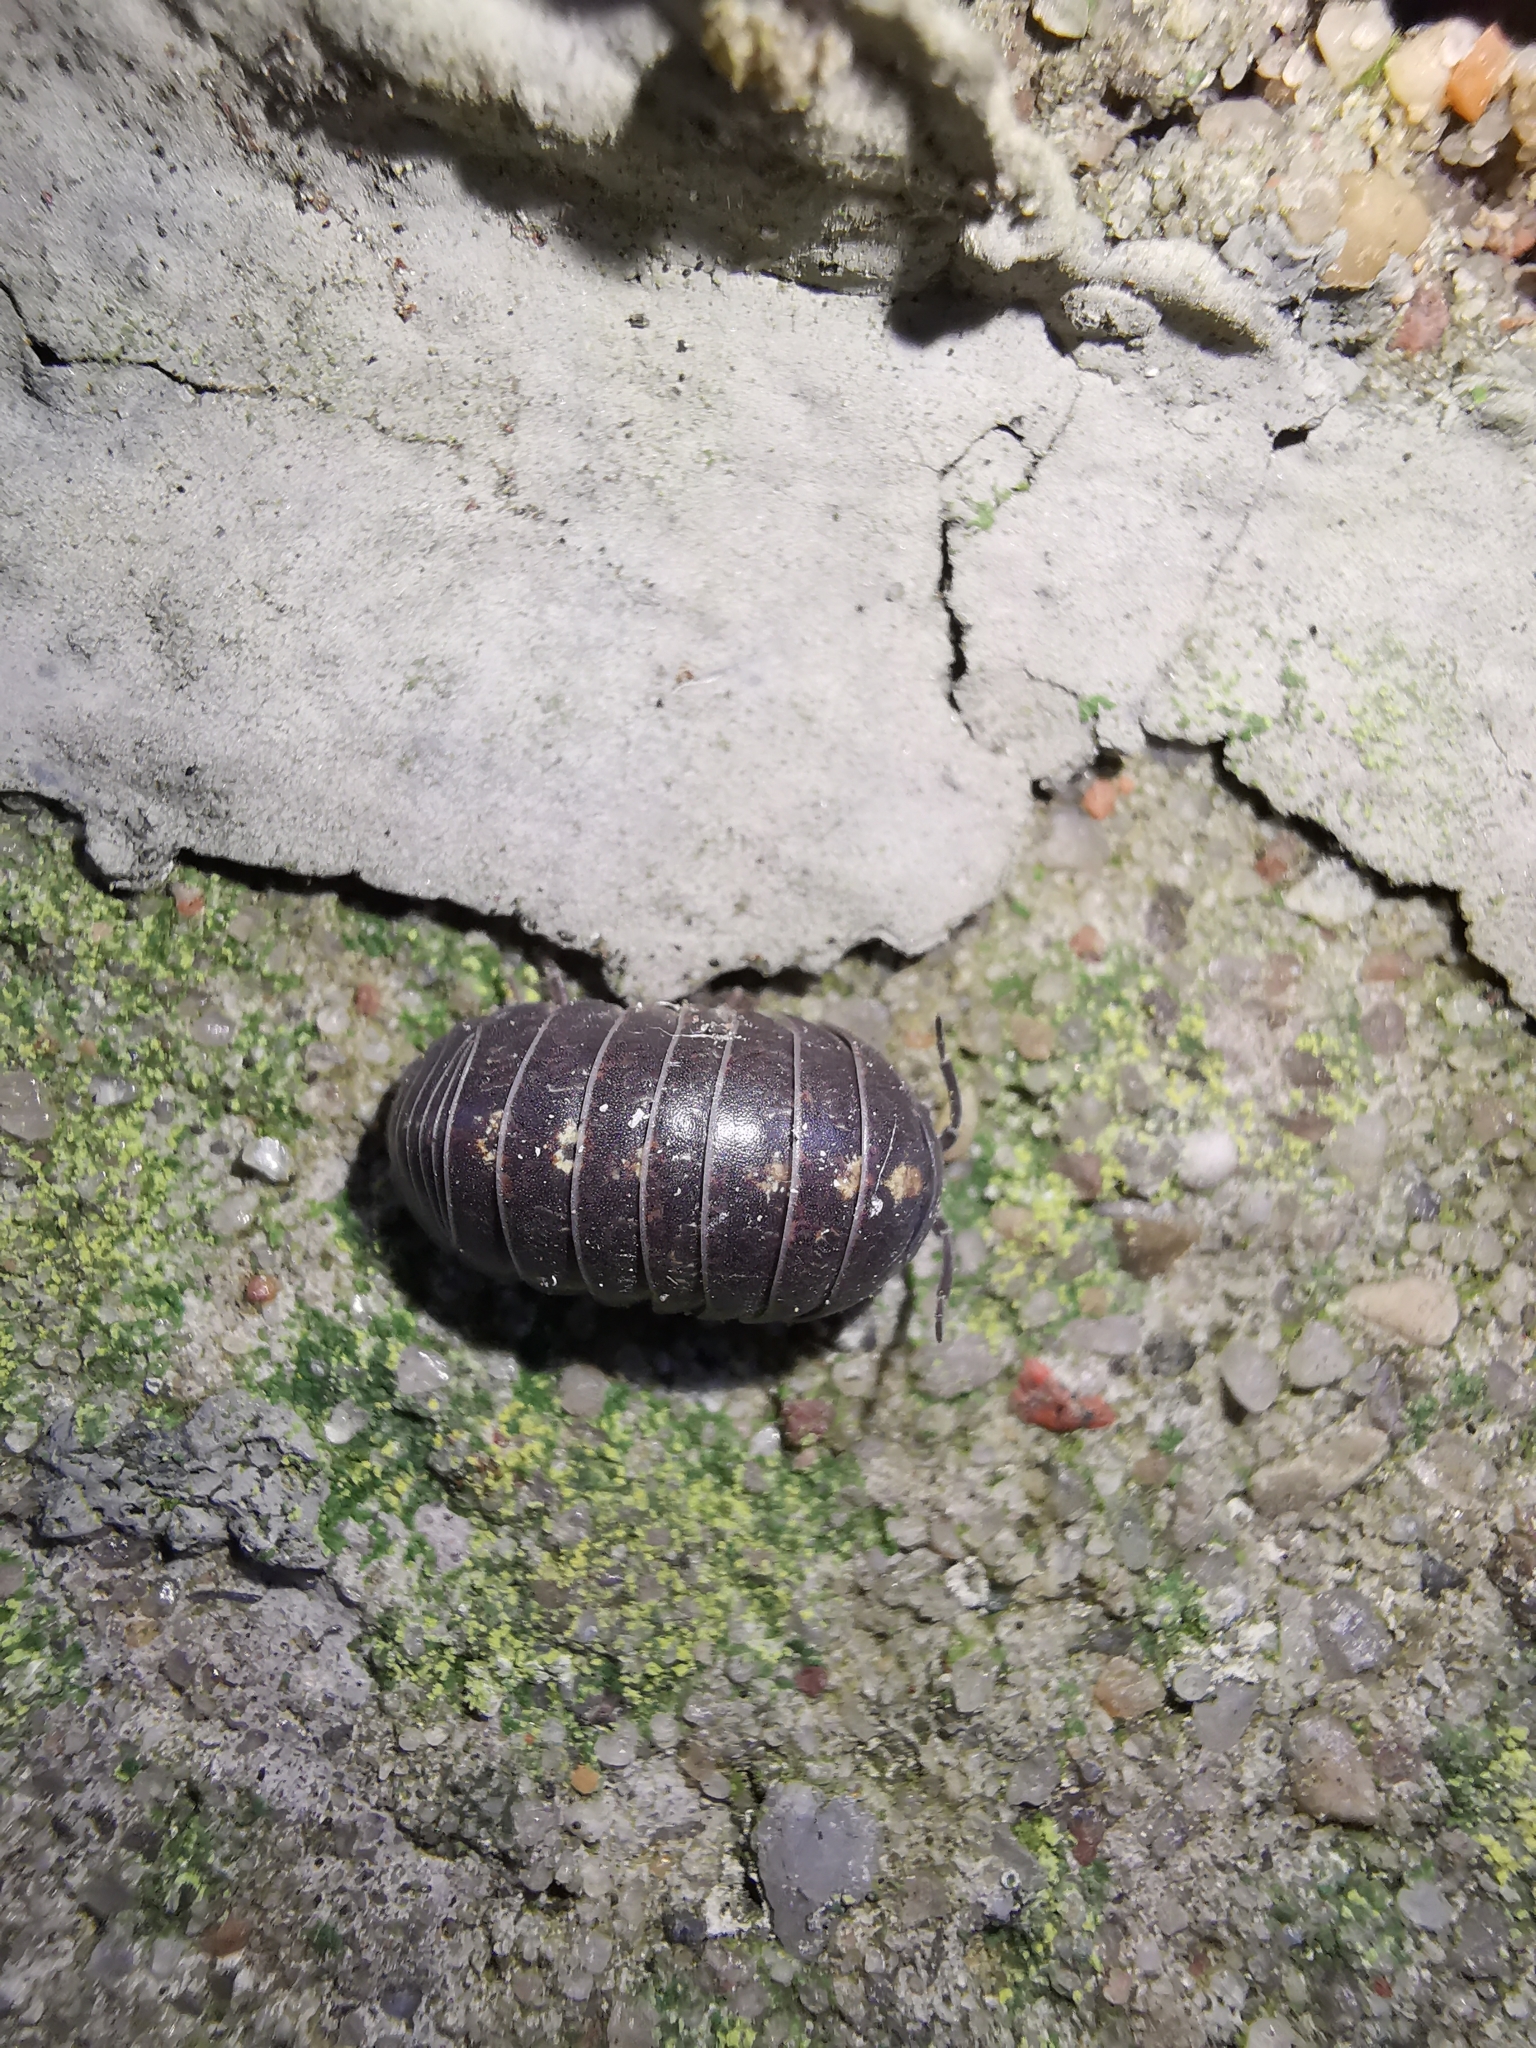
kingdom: Animalia
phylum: Arthropoda
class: Malacostraca
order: Isopoda
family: Armadillidiidae
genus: Armadillidium
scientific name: Armadillidium vulgare
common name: Common pill woodlouse
